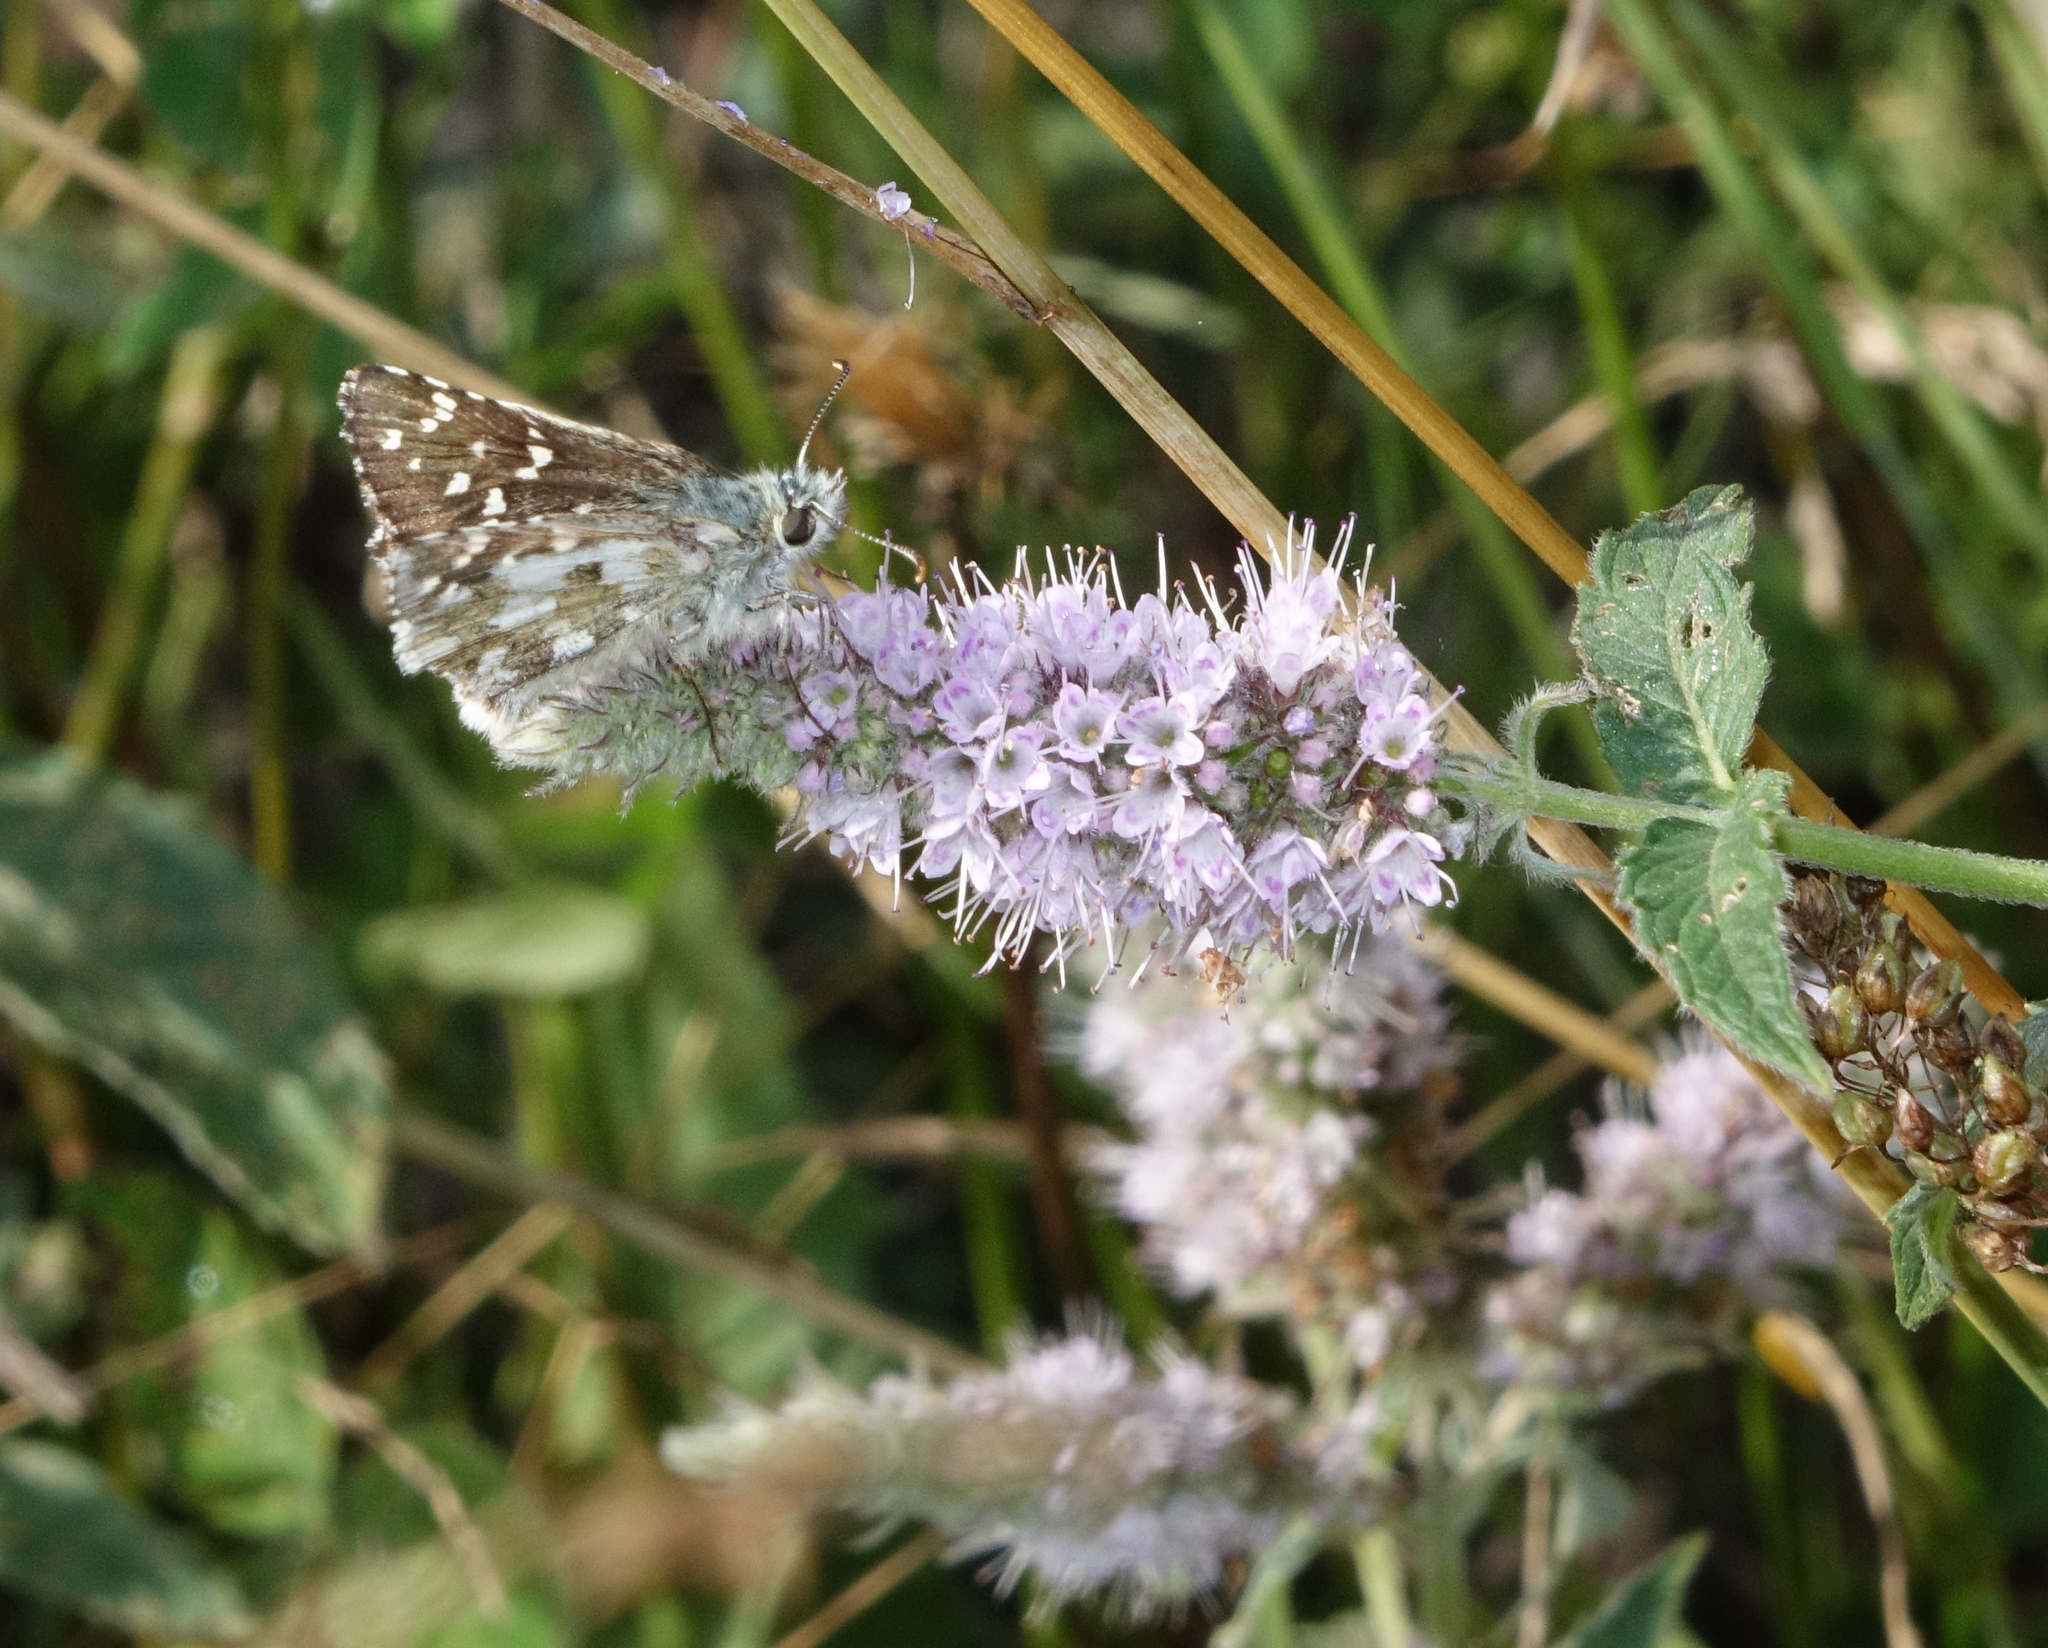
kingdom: Plantae
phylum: Tracheophyta
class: Magnoliopsida
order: Lamiales
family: Lamiaceae
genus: Mentha
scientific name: Mentha longifolia
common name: Horse mint
